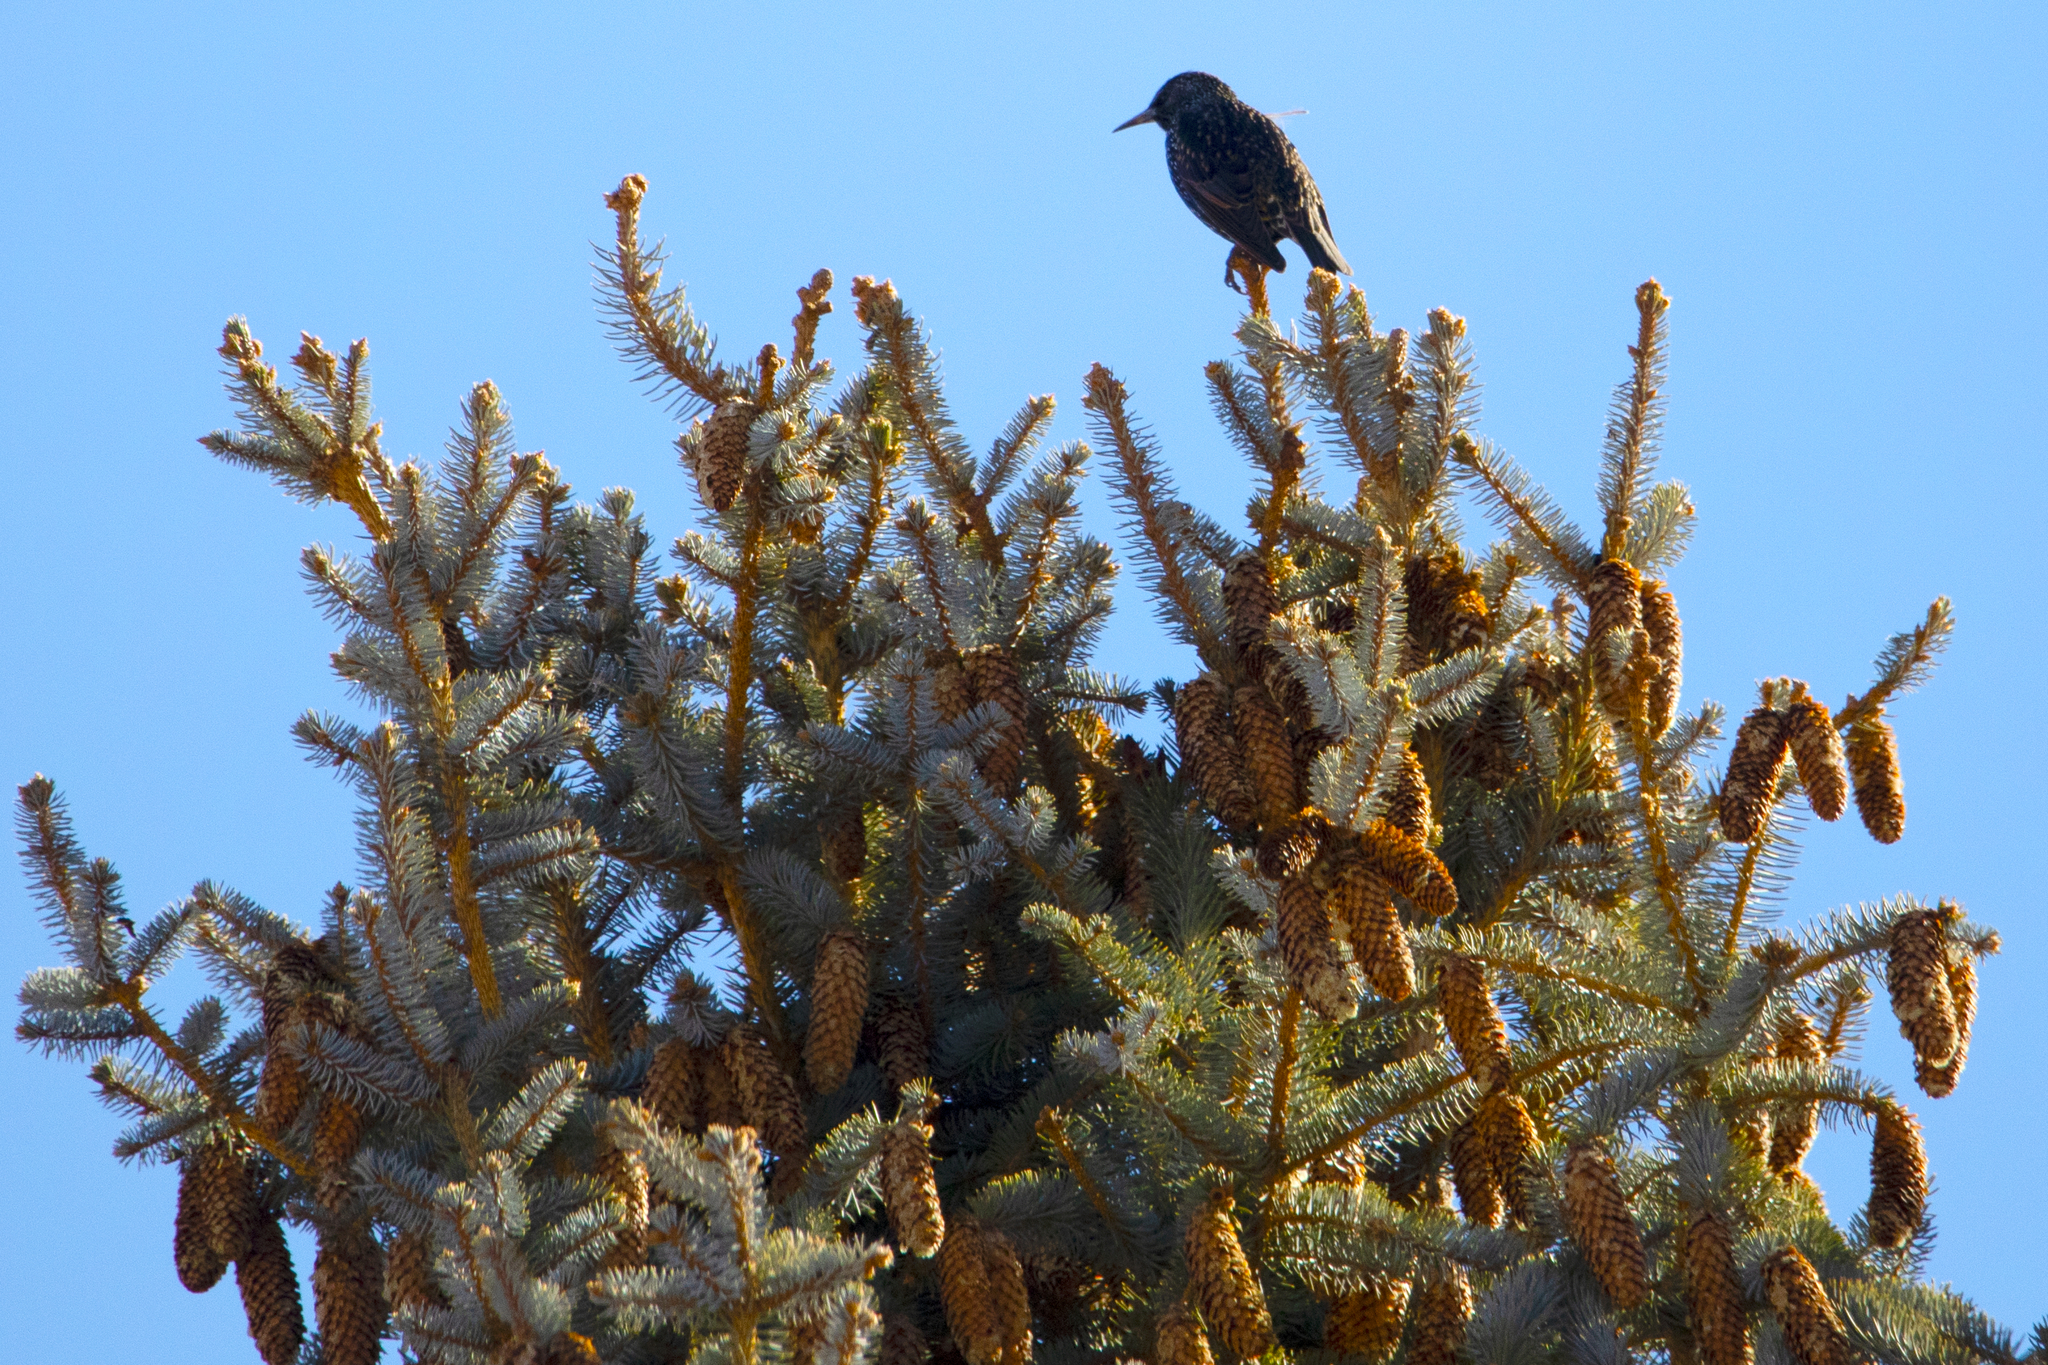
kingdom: Animalia
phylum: Chordata
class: Aves
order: Passeriformes
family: Sturnidae
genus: Sturnus
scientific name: Sturnus vulgaris
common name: Common starling
